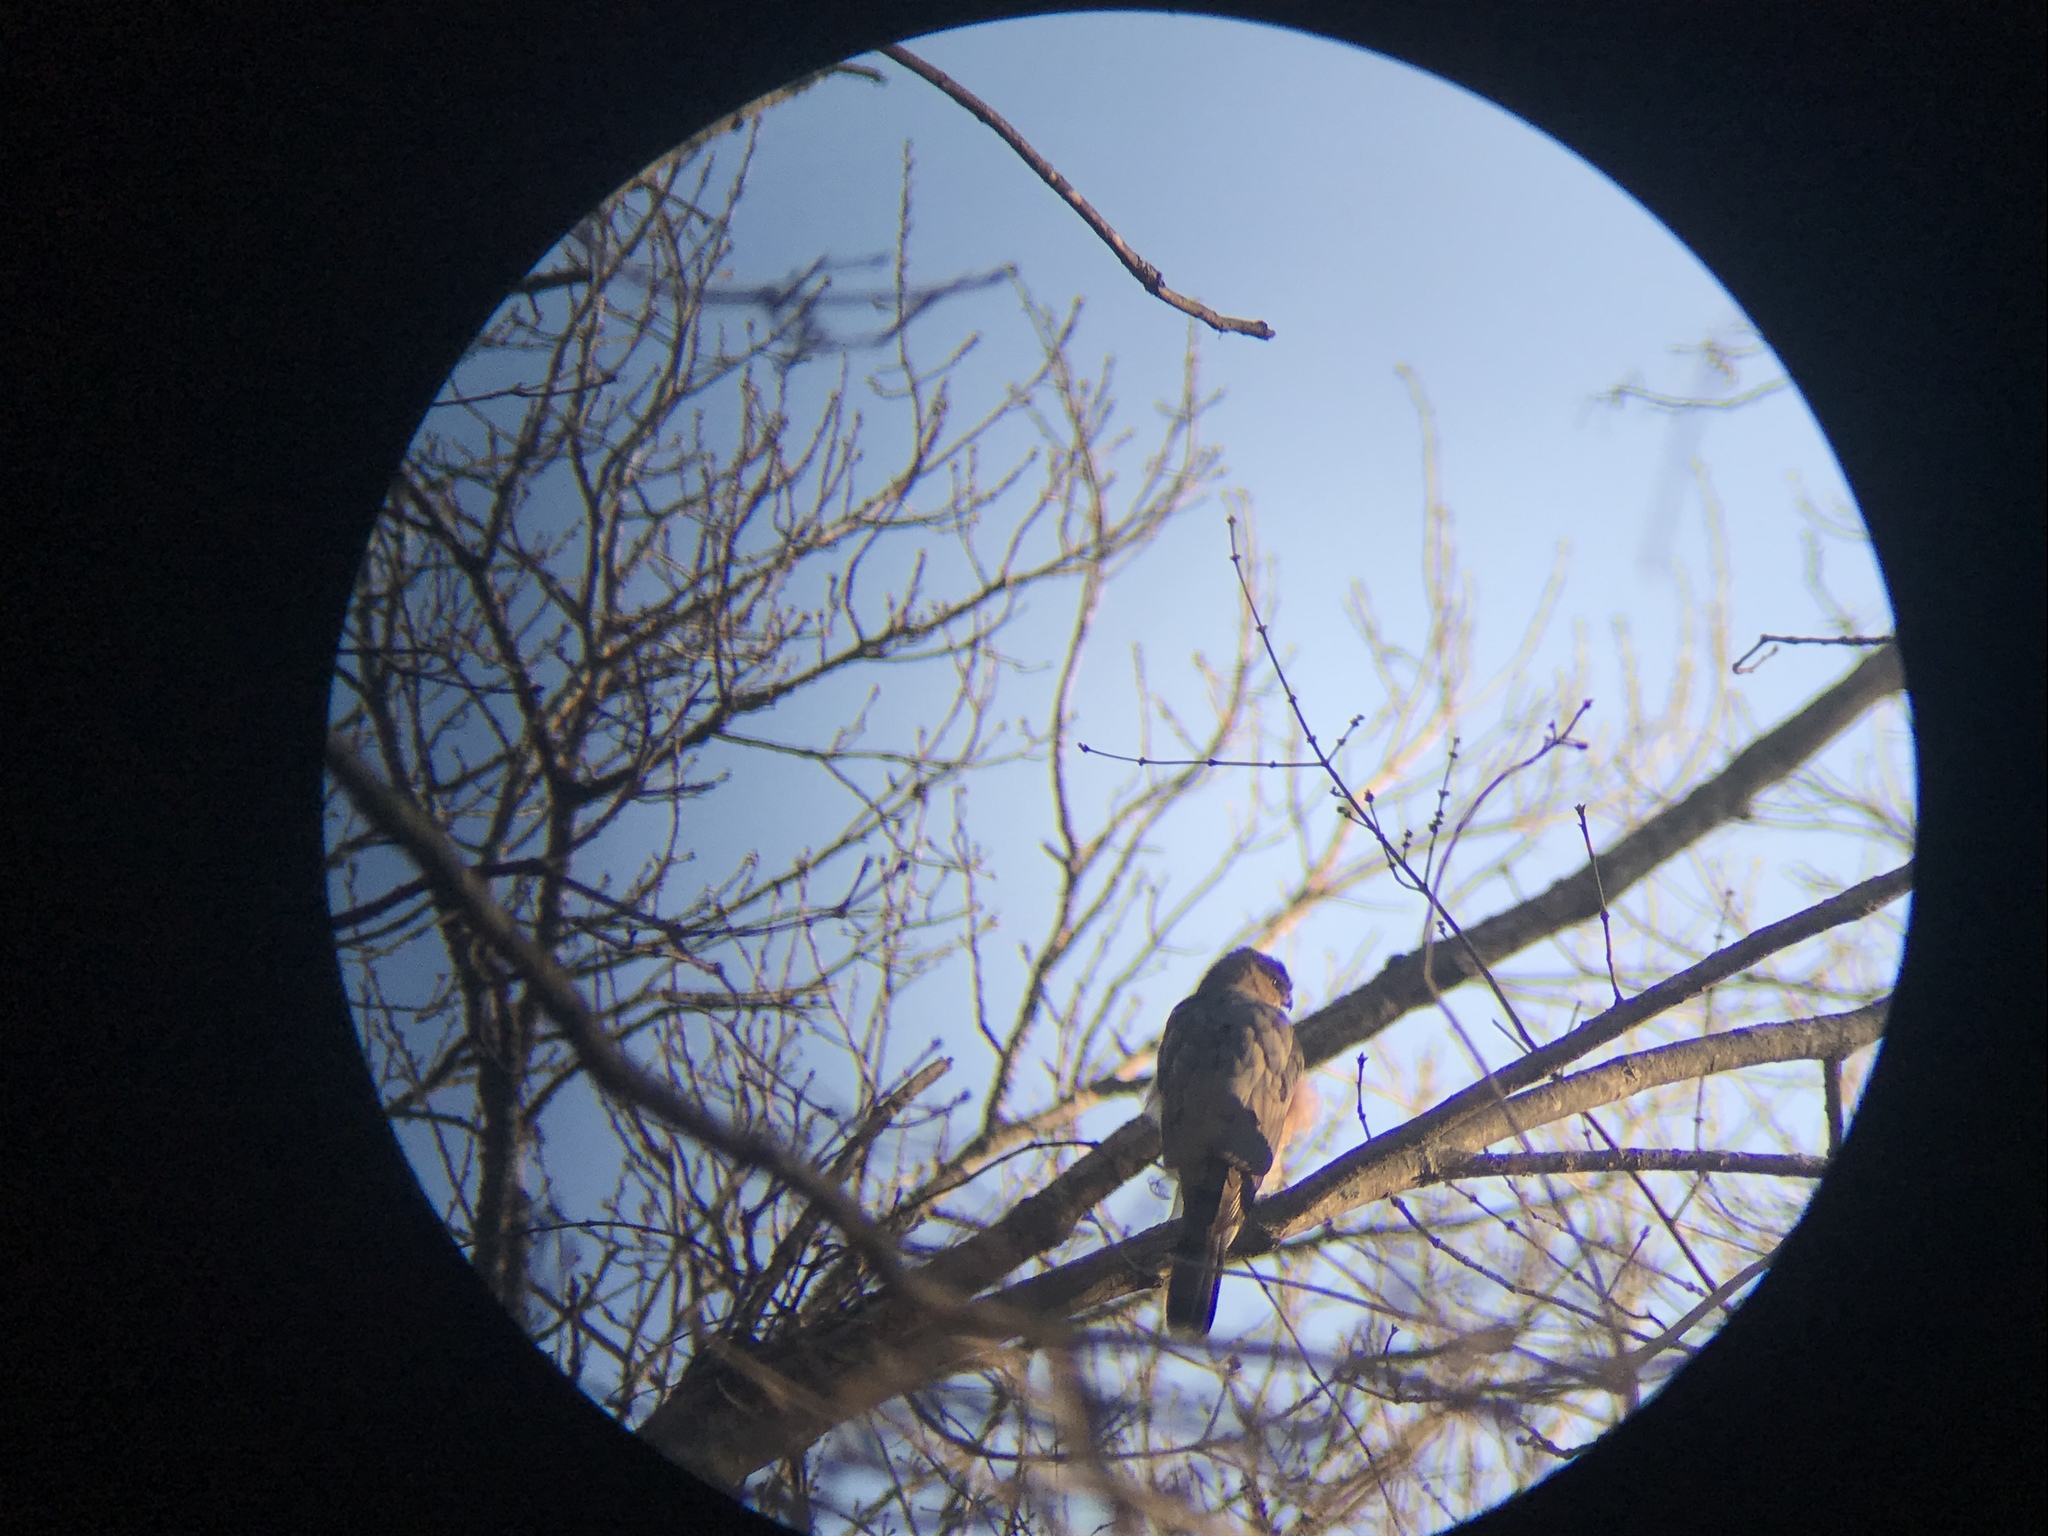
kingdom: Animalia
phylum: Chordata
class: Aves
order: Accipitriformes
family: Accipitridae
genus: Accipiter
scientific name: Accipiter cooperii
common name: Cooper's hawk
